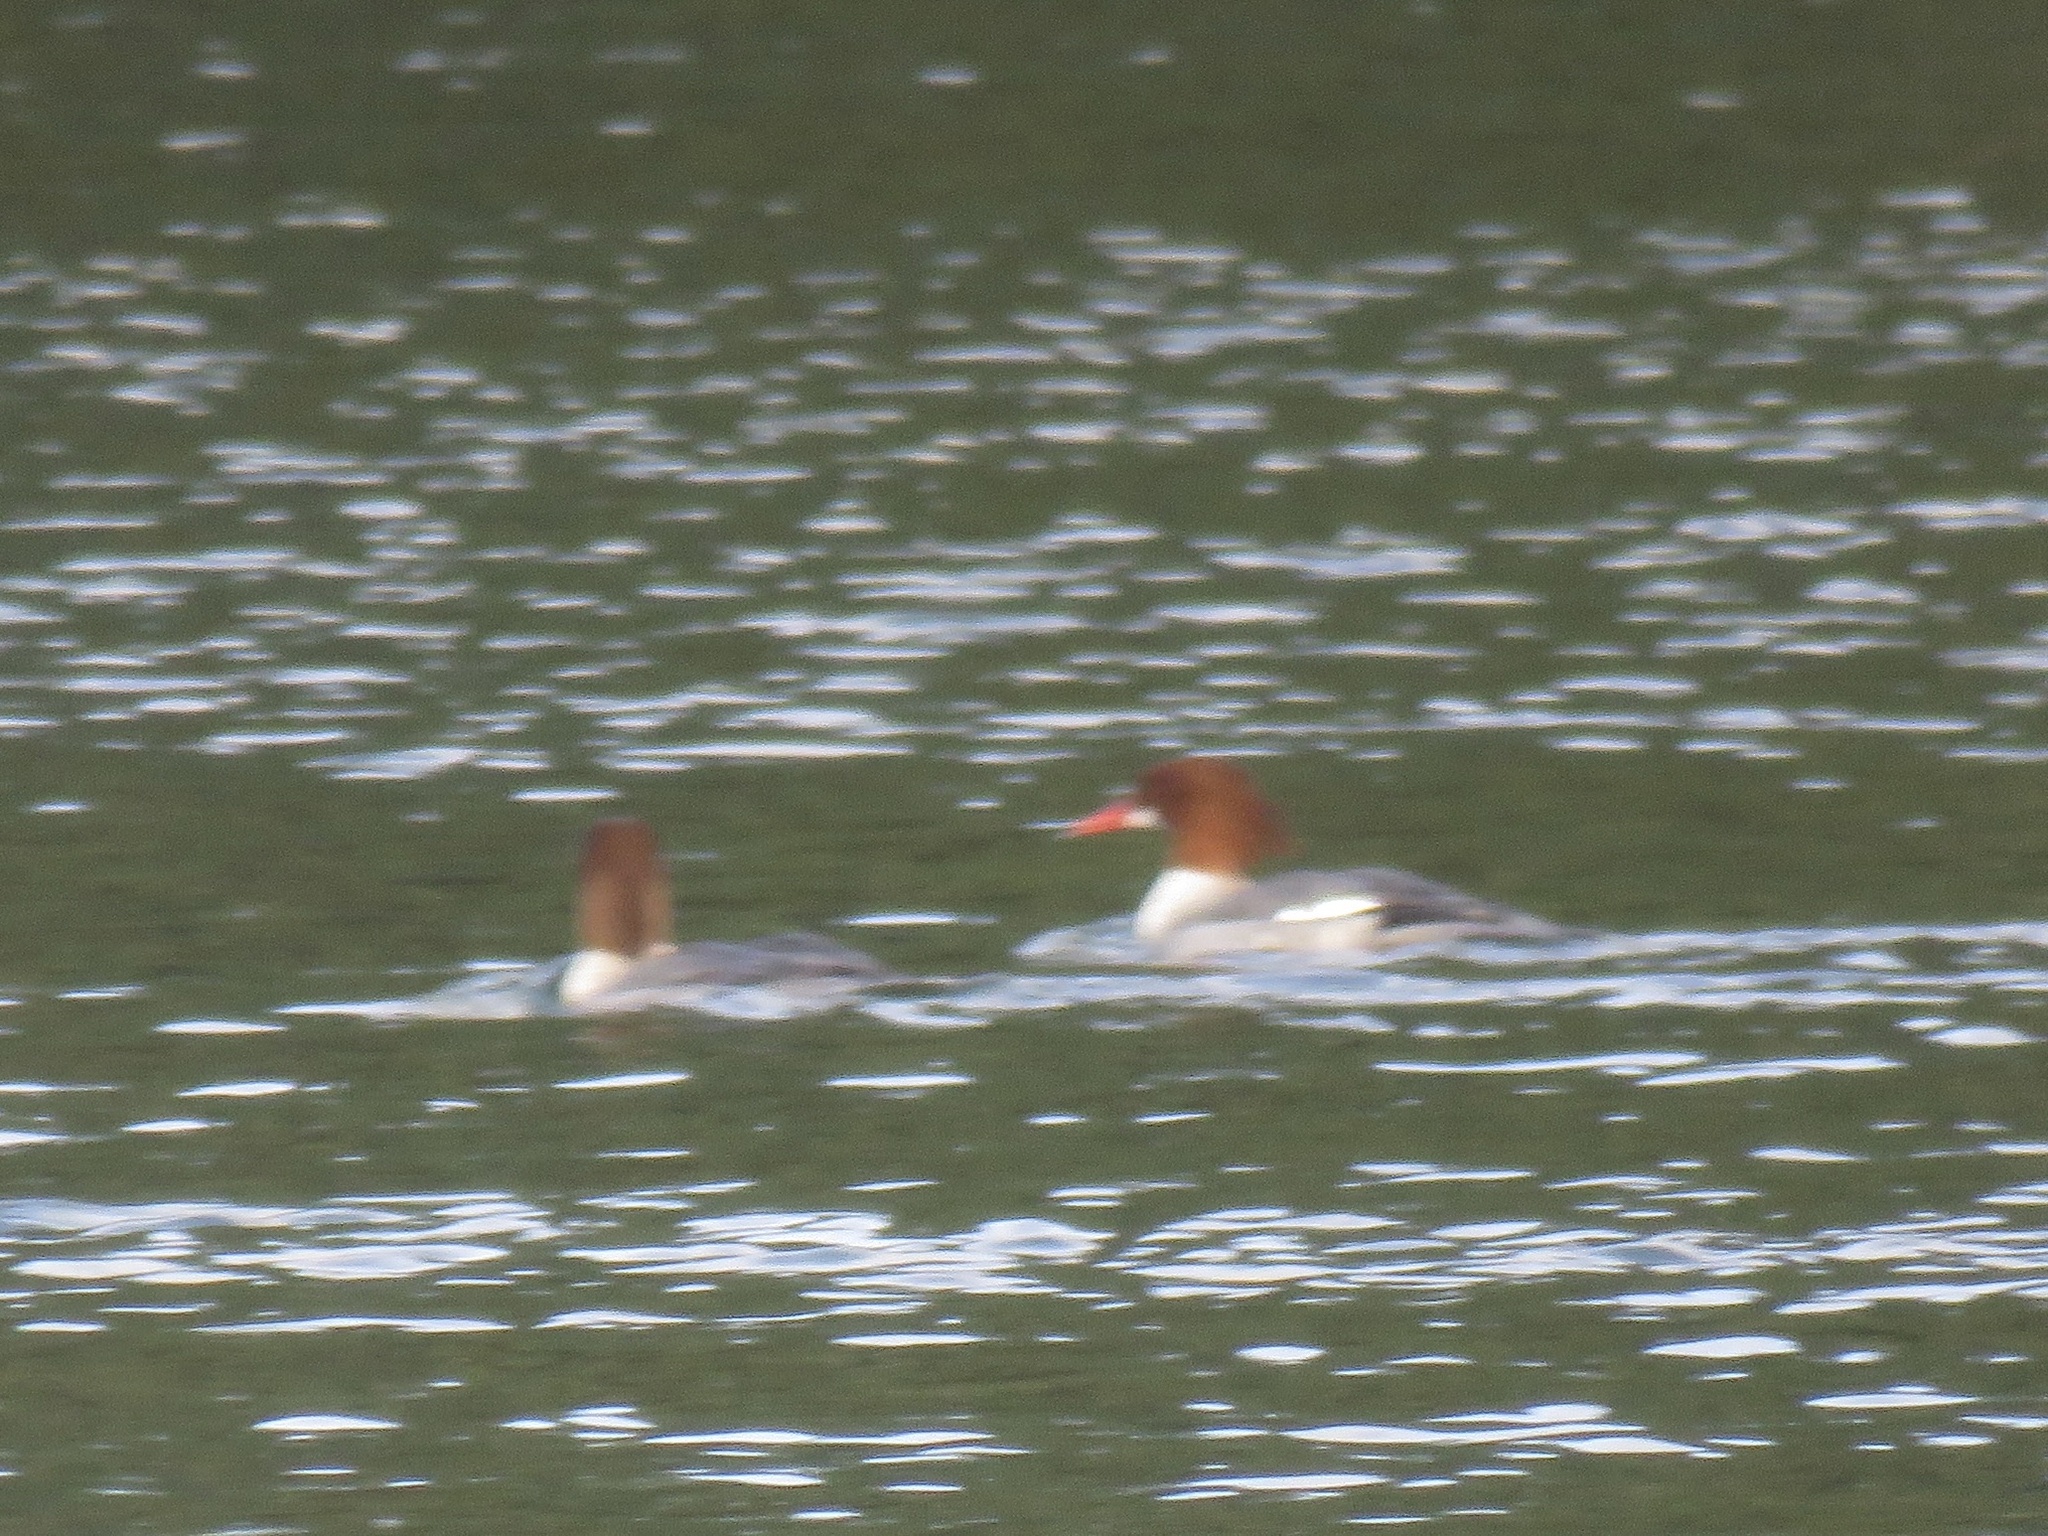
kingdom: Animalia
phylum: Chordata
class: Aves
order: Anseriformes
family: Anatidae
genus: Mergus
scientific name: Mergus merganser
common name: Common merganser
